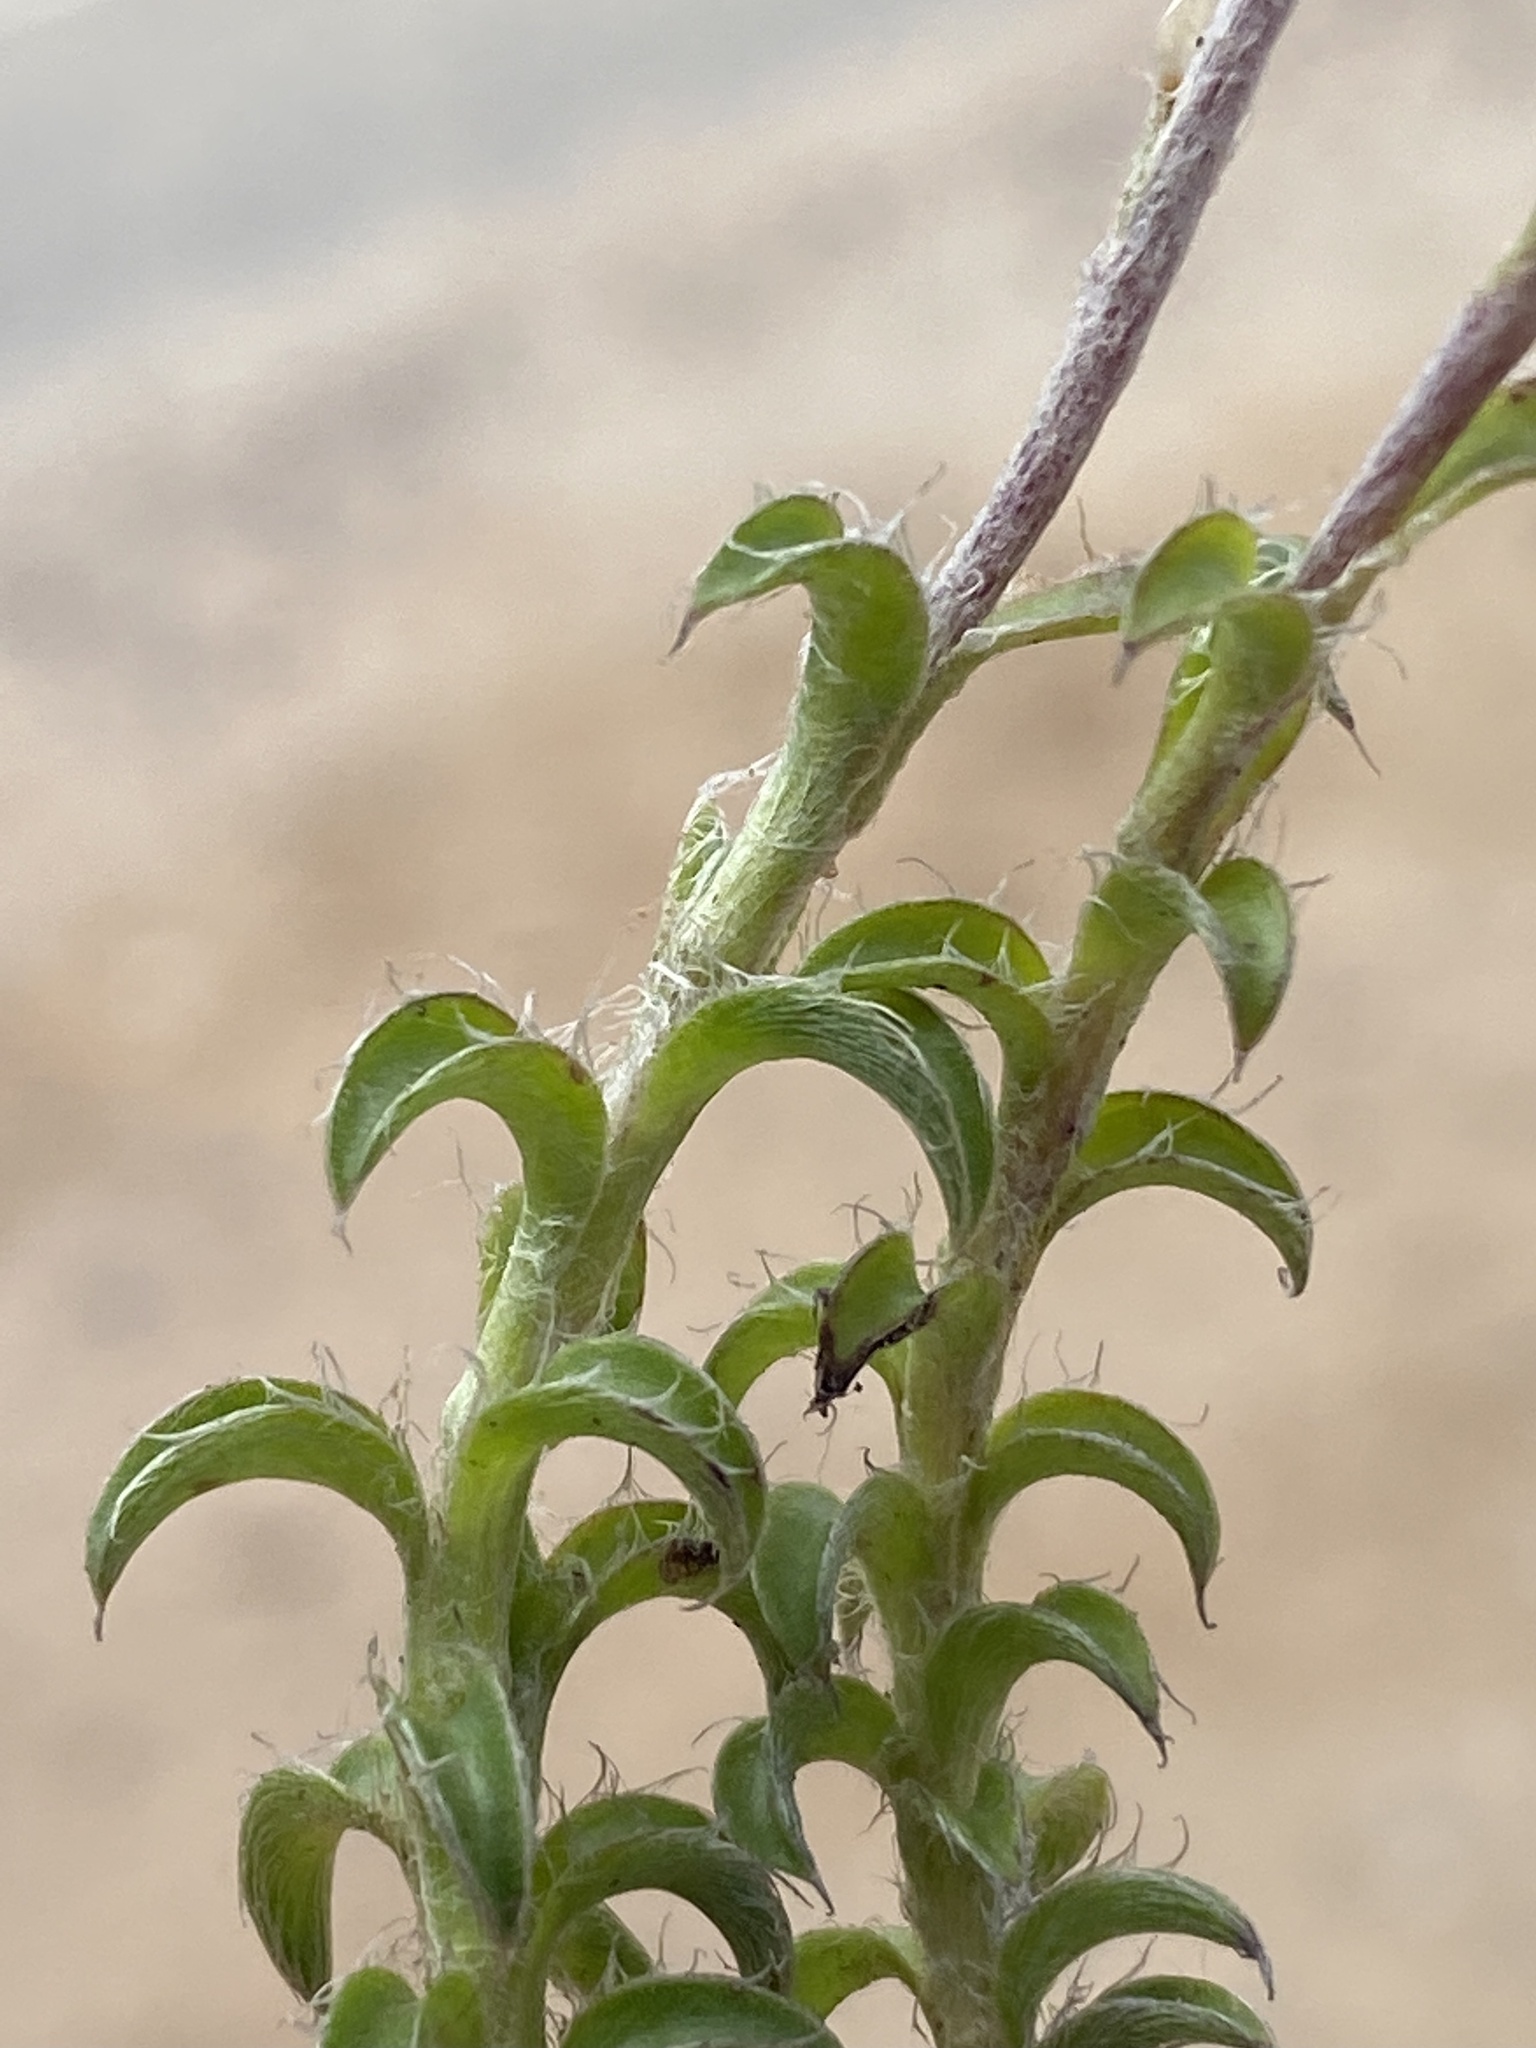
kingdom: Plantae
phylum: Tracheophyta
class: Magnoliopsida
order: Asterales
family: Asteraceae
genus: Achyranthemum
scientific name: Achyranthemum recurvatum
